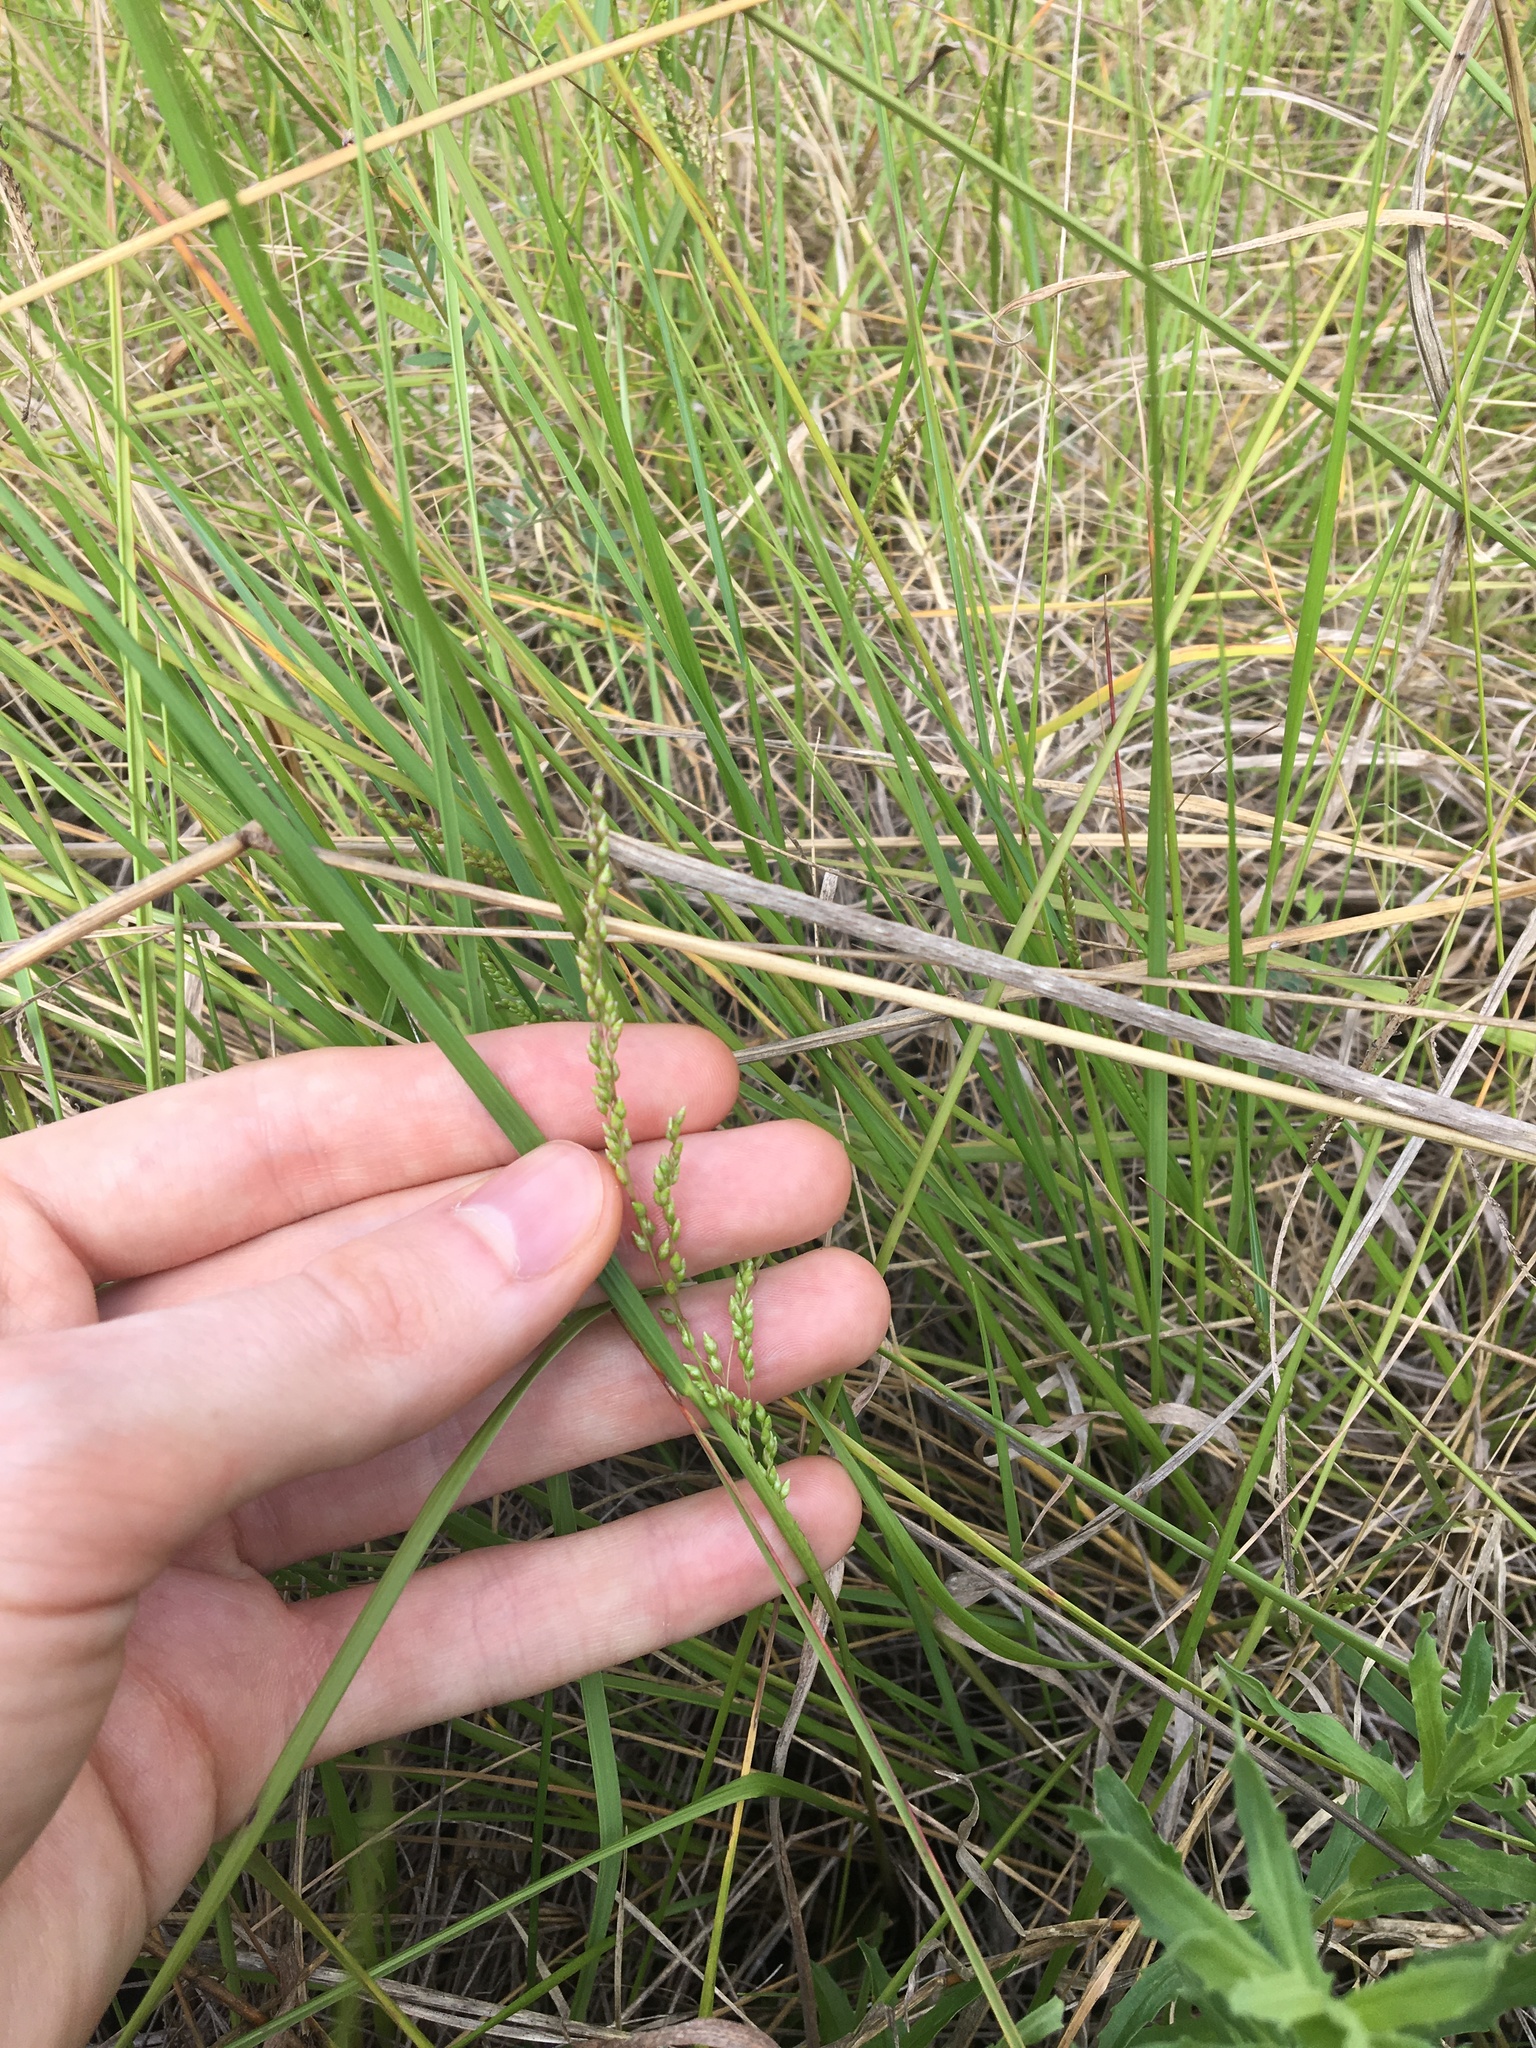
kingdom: Plantae
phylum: Tracheophyta
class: Liliopsida
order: Poales
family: Poaceae
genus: Chascolytrum
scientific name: Chascolytrum subaristatum
